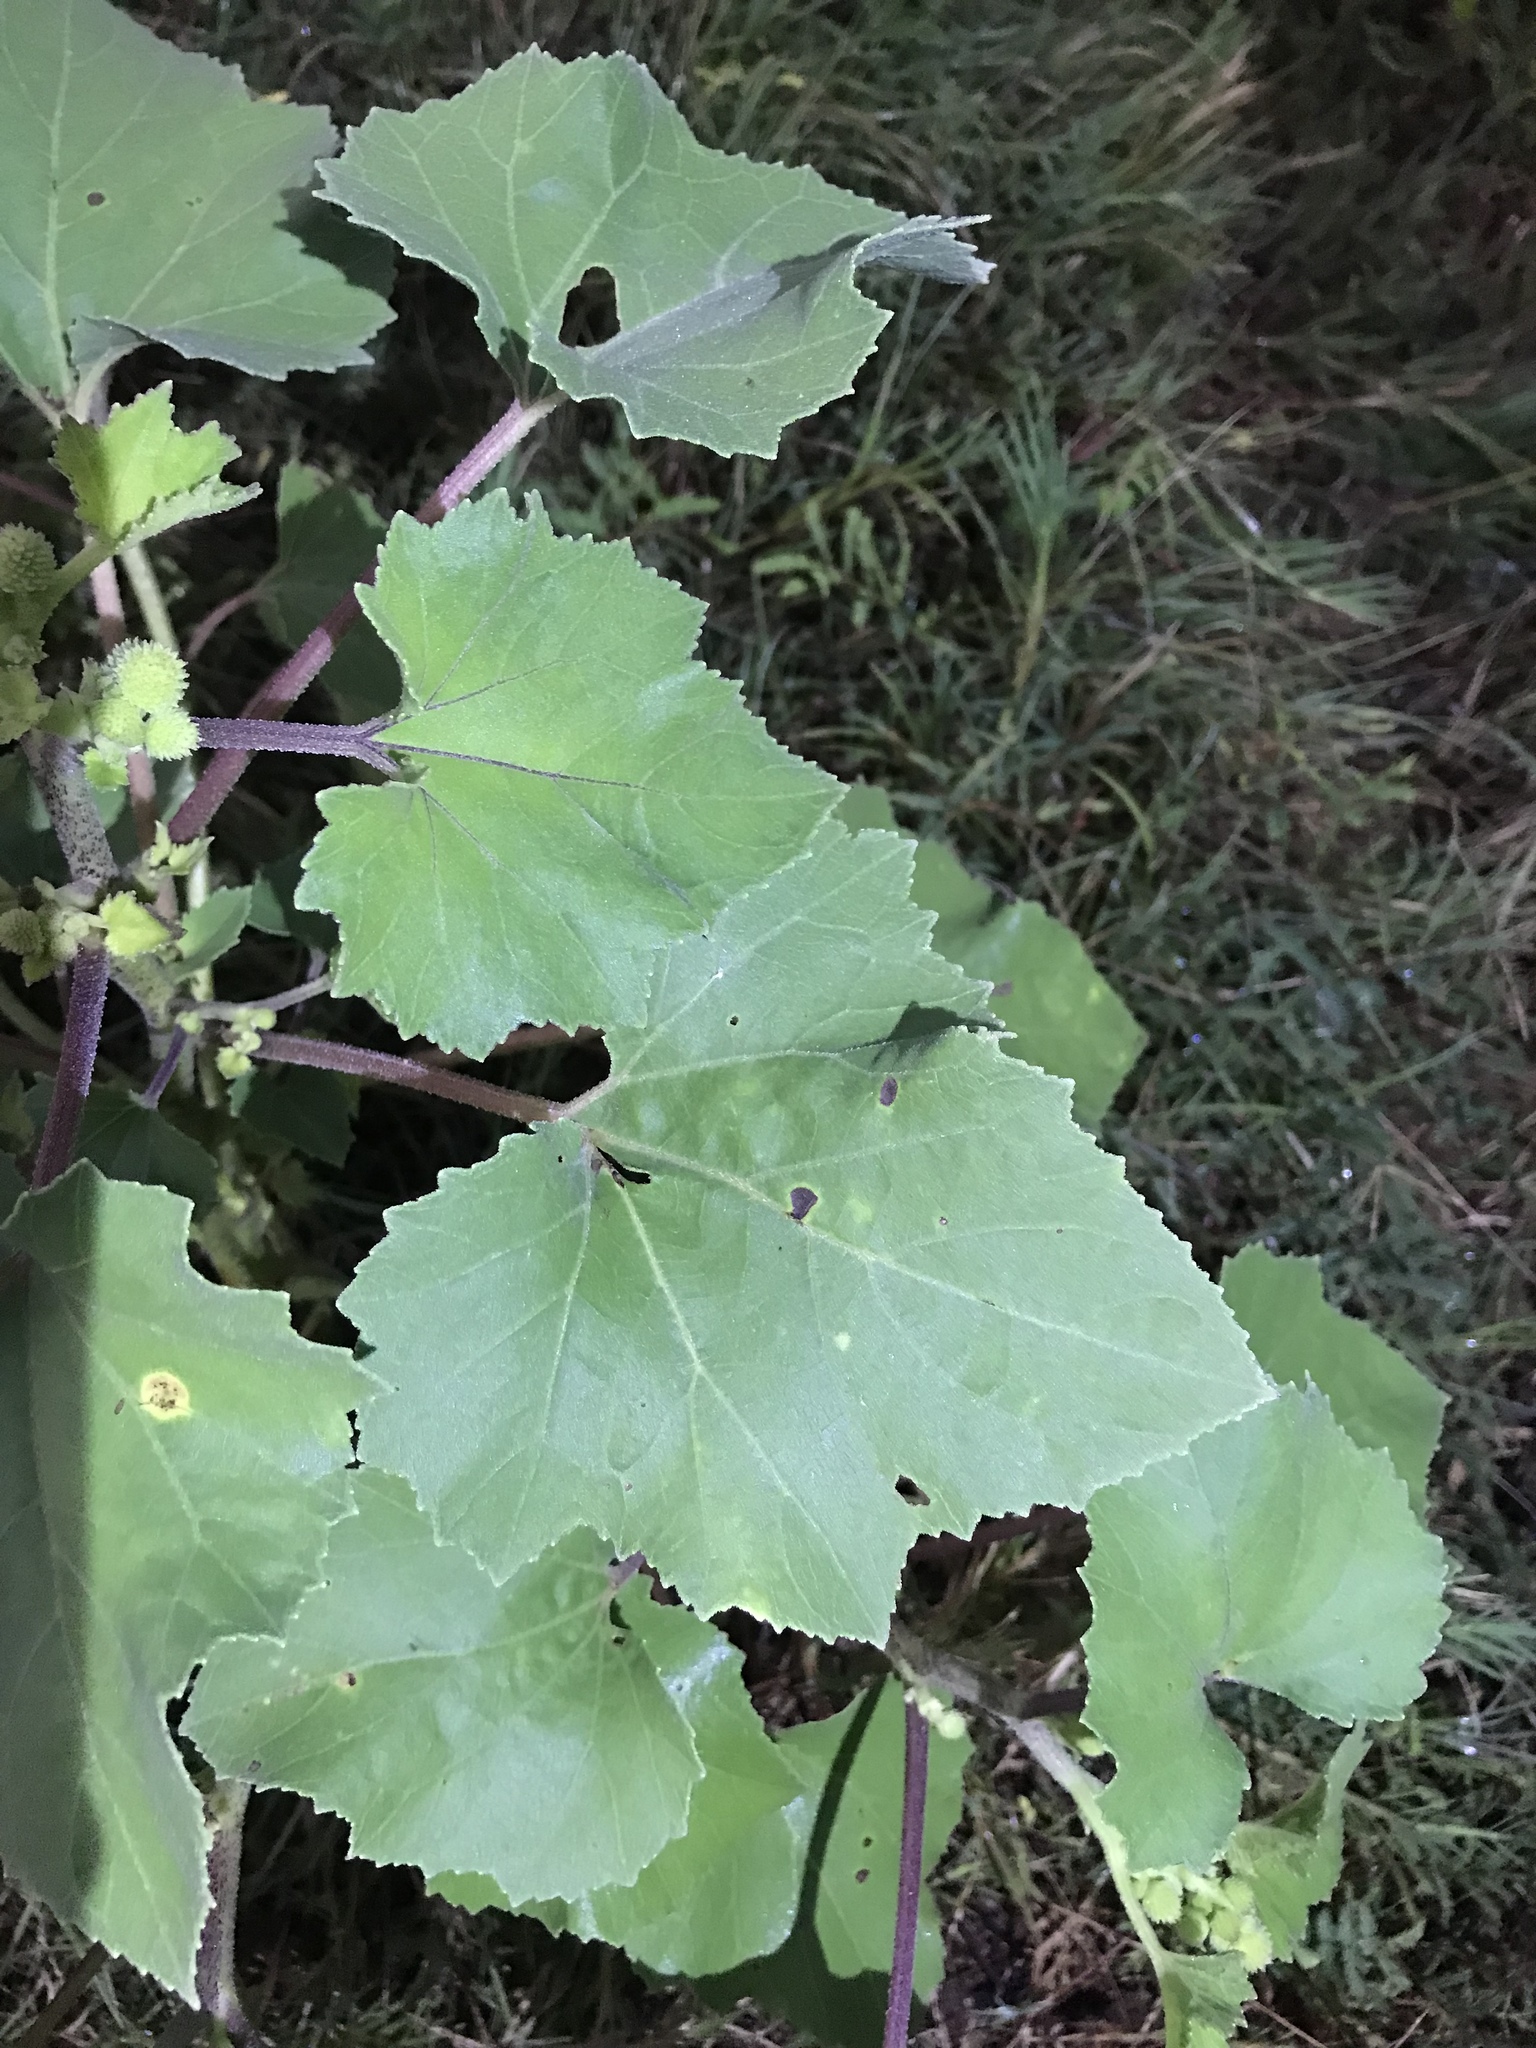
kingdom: Plantae
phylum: Tracheophyta
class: Magnoliopsida
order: Asterales
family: Asteraceae
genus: Xanthium
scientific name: Xanthium strumarium
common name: Rough cocklebur
